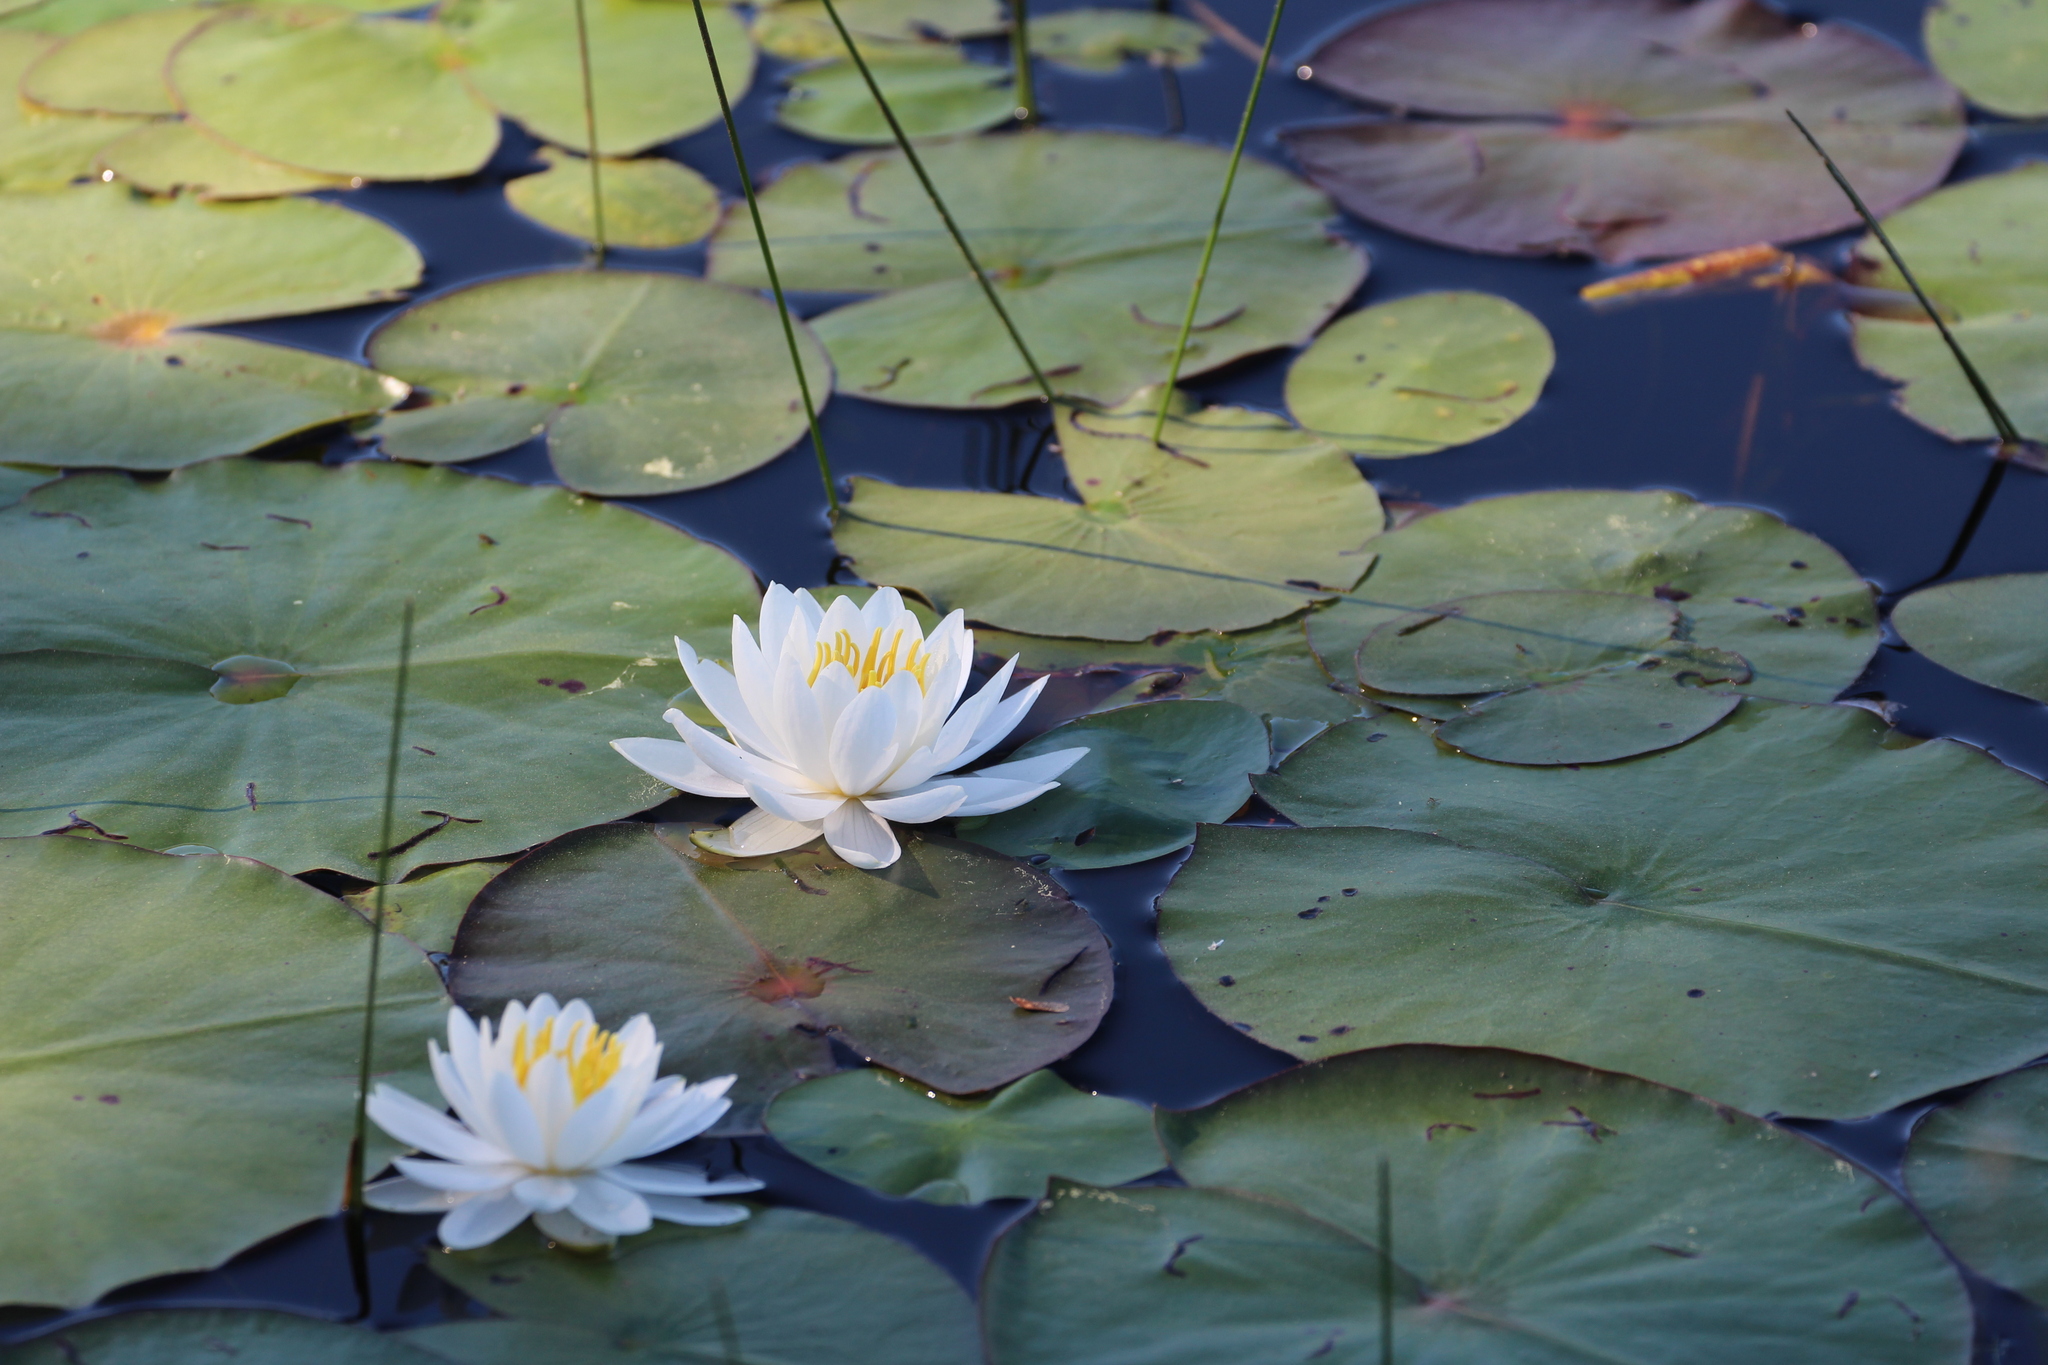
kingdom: Plantae
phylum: Tracheophyta
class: Magnoliopsida
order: Nymphaeales
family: Nymphaeaceae
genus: Nymphaea
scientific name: Nymphaea odorata
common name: Fragrant water-lily
